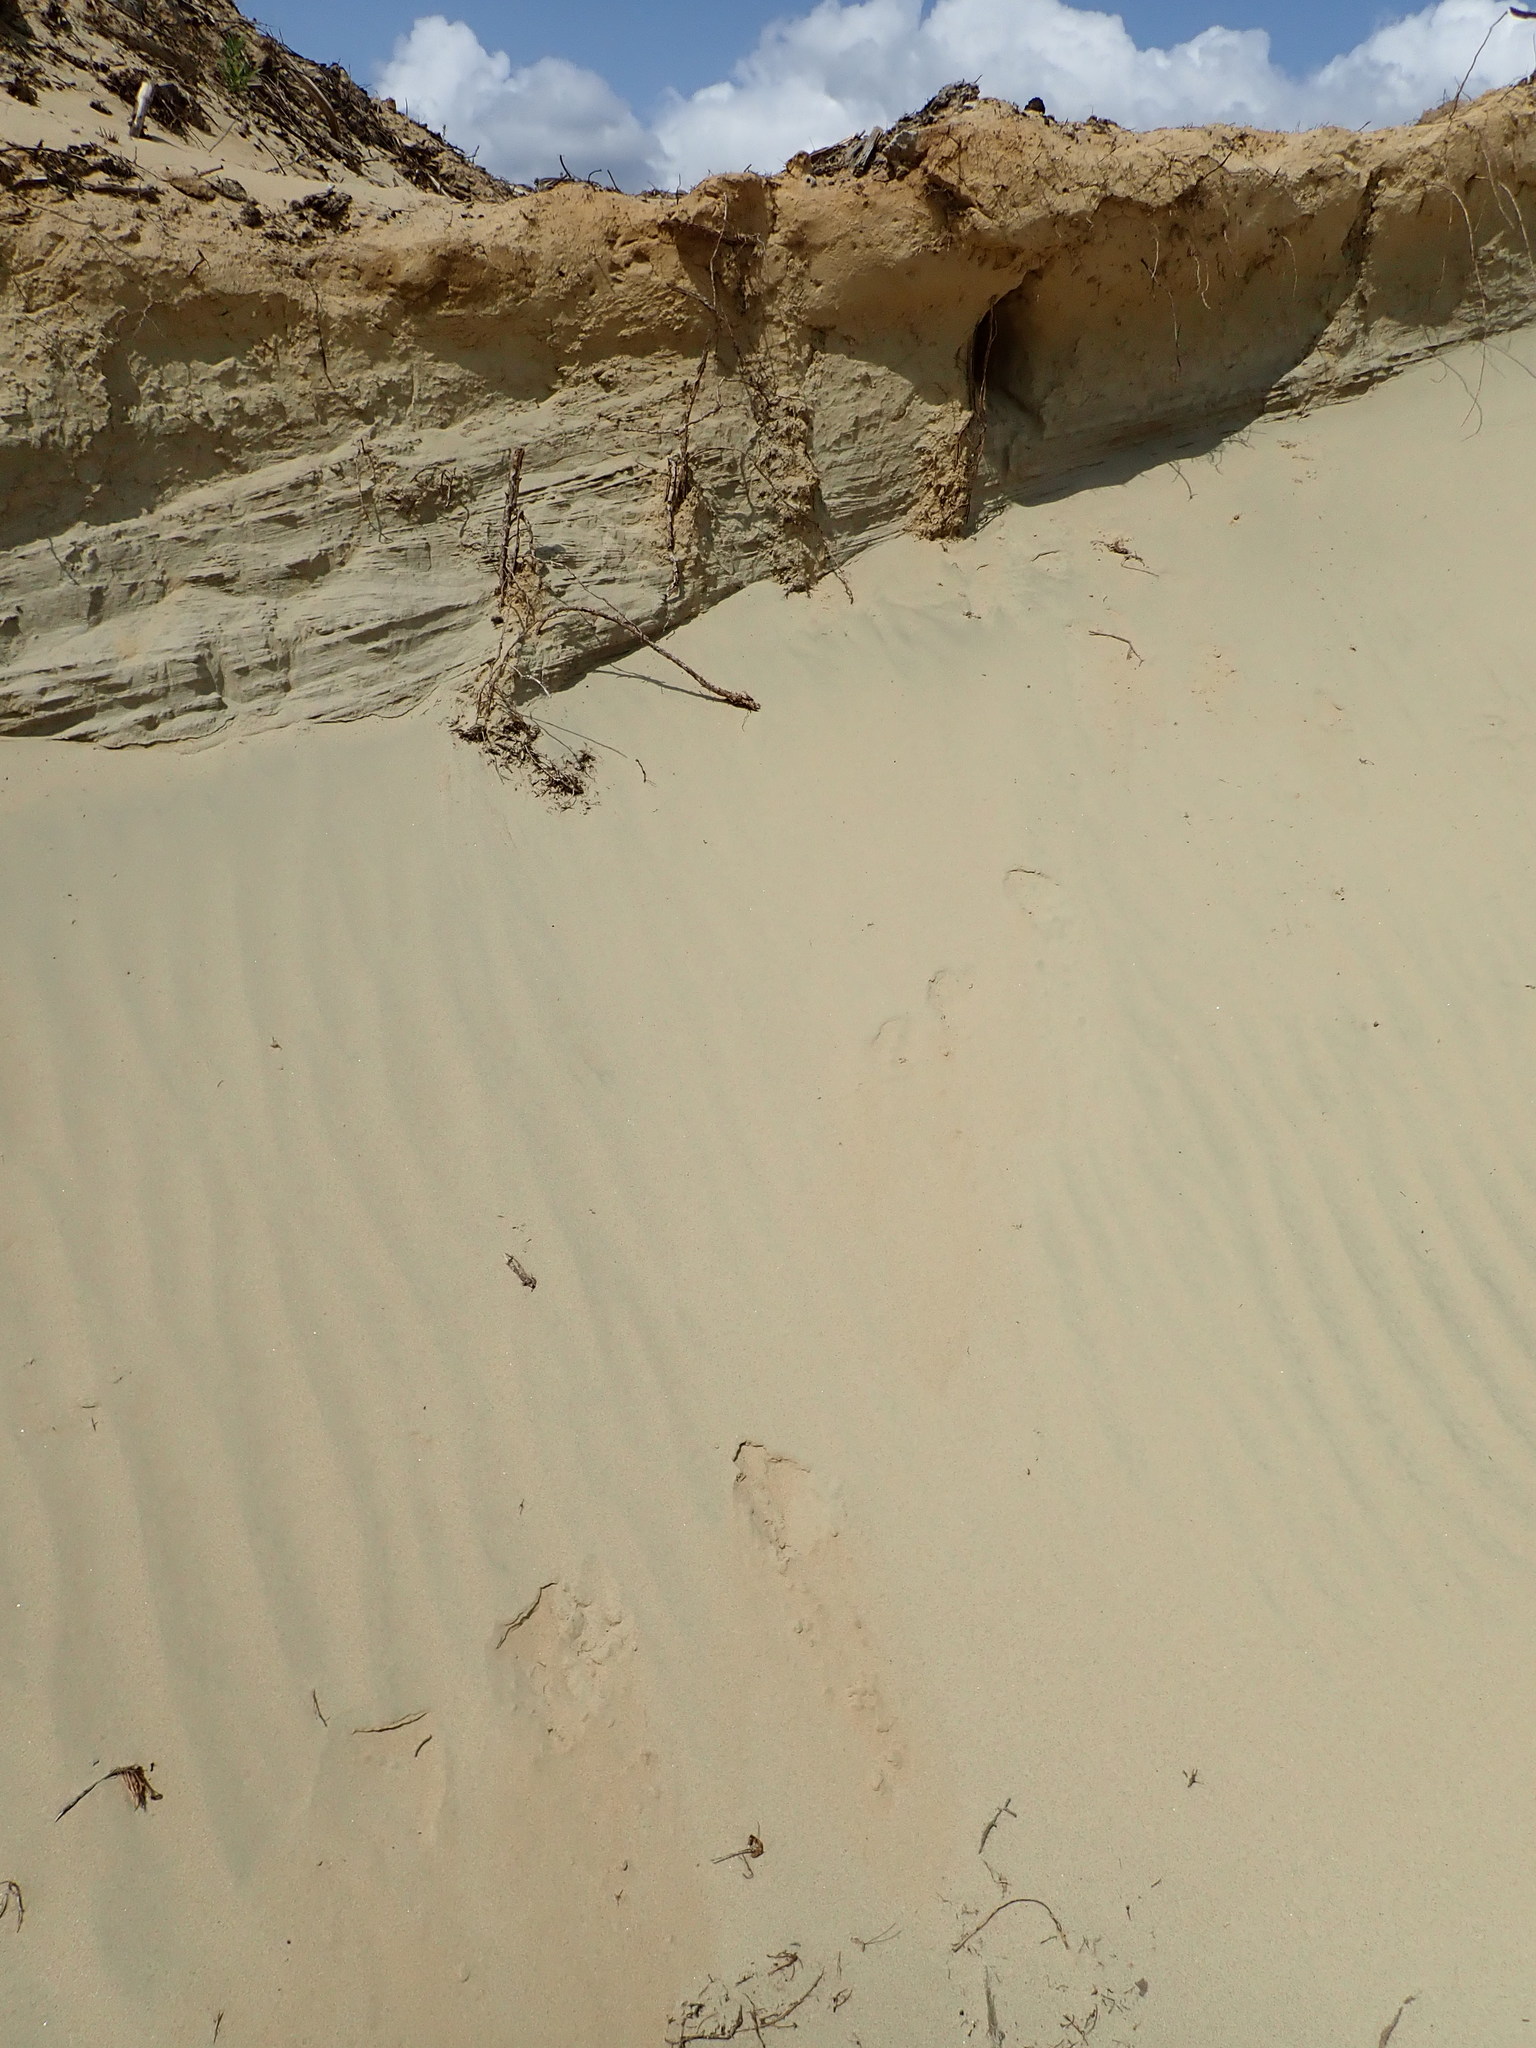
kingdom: Animalia
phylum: Chordata
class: Aves
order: Coraciiformes
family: Alcedinidae
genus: Megaceryle
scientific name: Megaceryle alcyon
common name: Belted kingfisher
